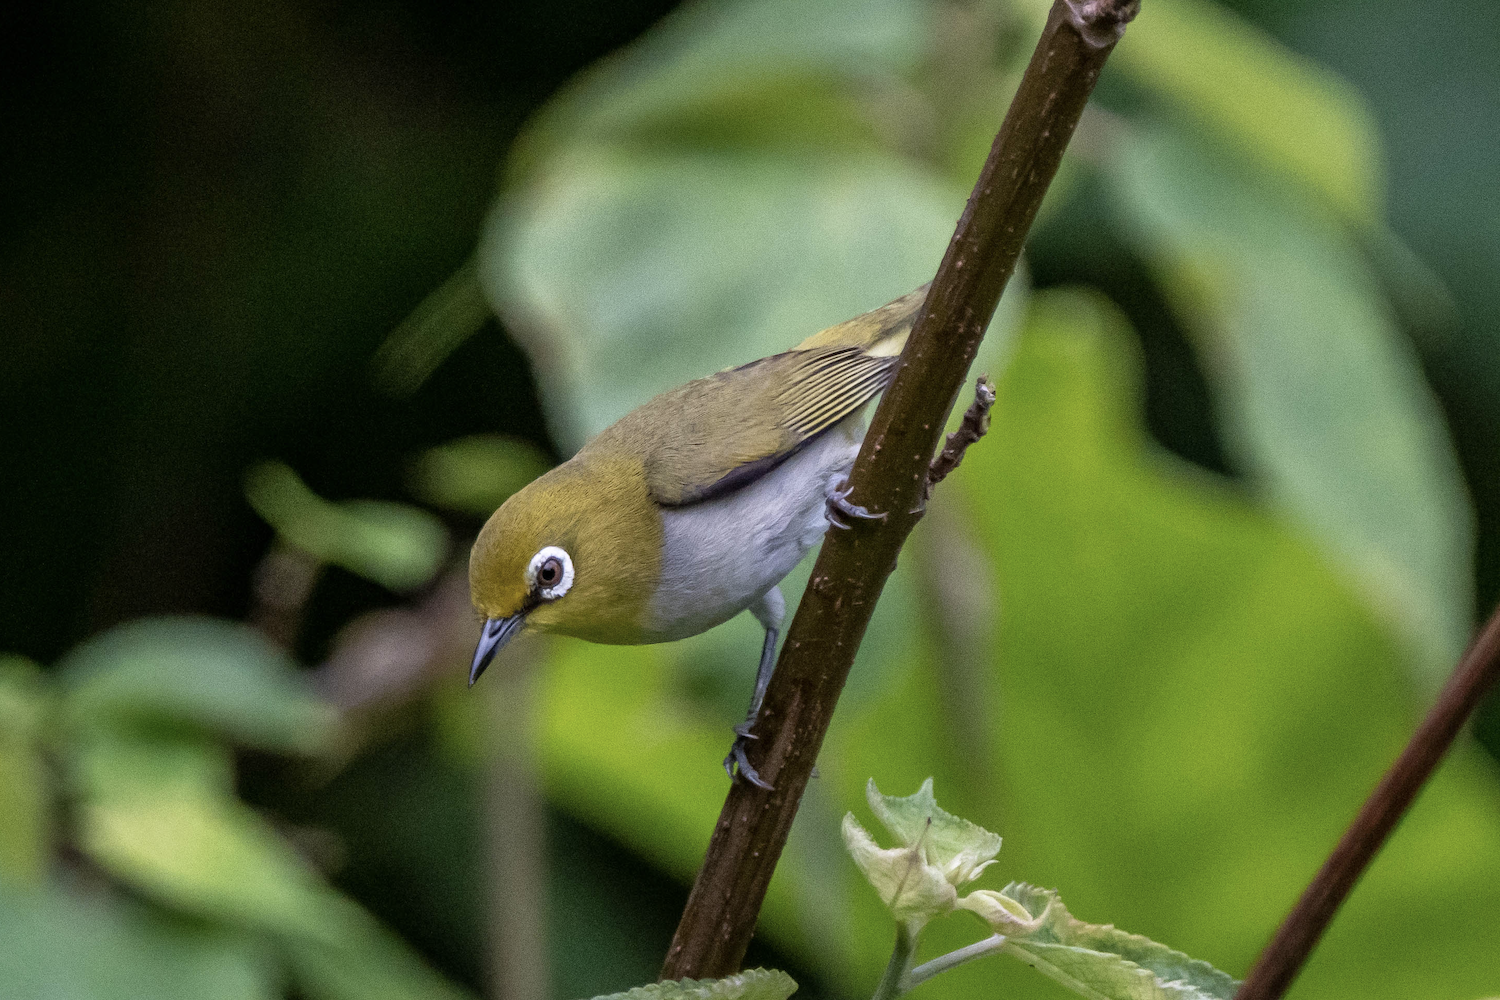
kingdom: Animalia
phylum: Chordata
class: Aves
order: Passeriformes
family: Zosteropidae
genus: Zosterops
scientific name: Zosterops simplex
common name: Swinhoe's white-eye
